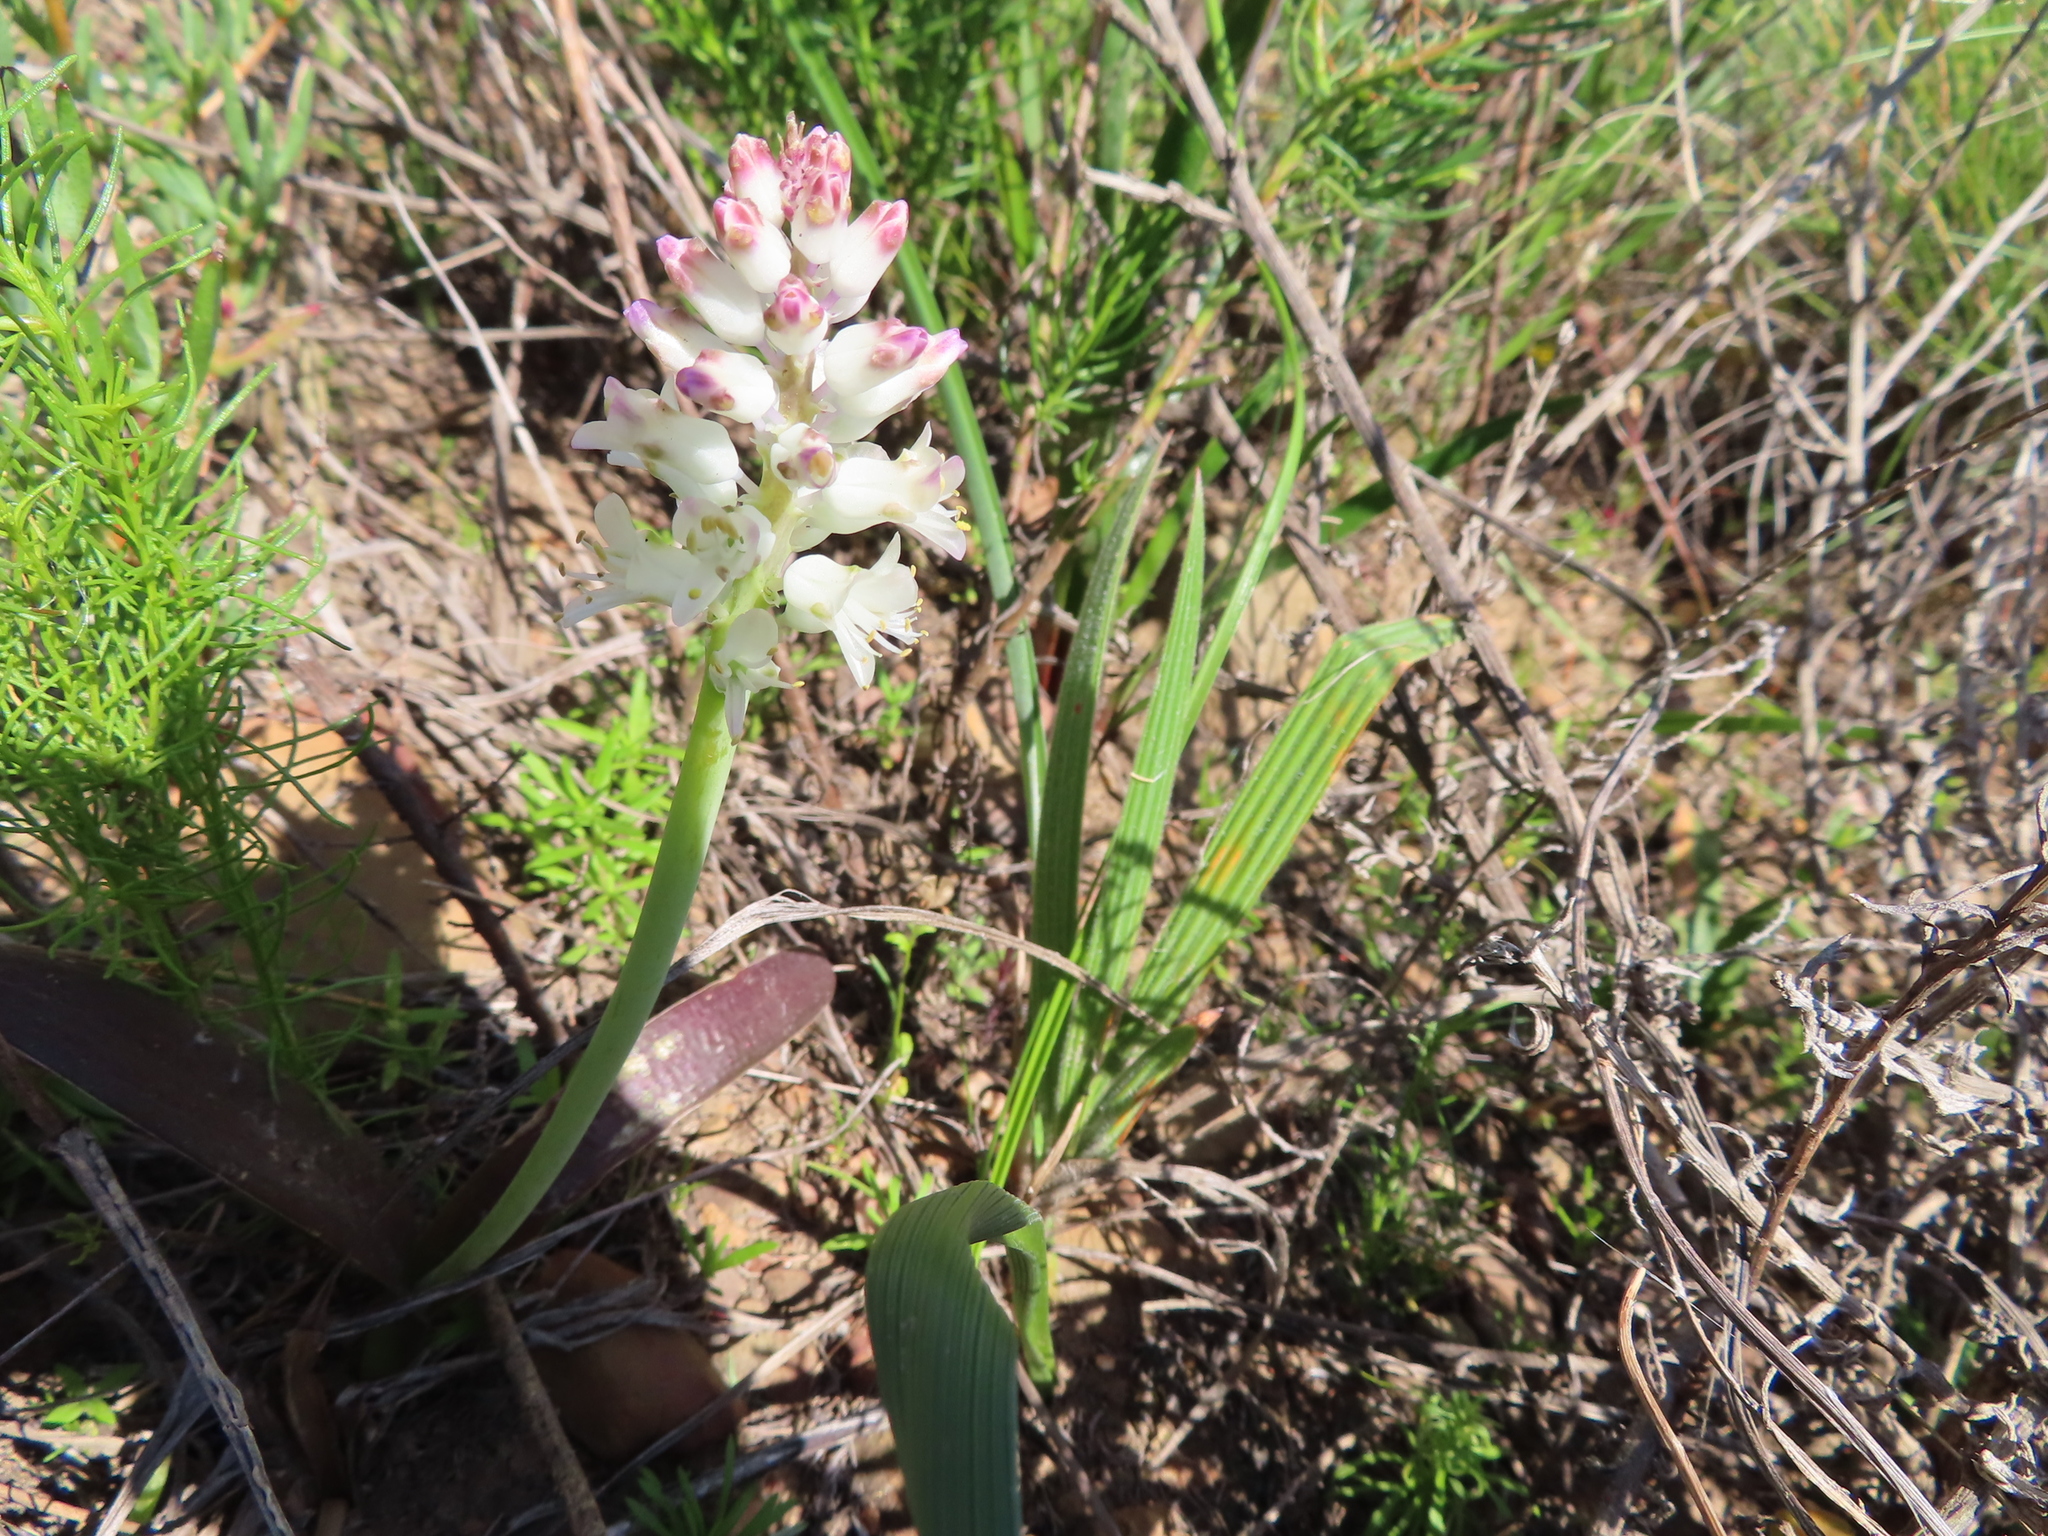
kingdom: Plantae
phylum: Tracheophyta
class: Liliopsida
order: Asparagales
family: Asparagaceae
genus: Lachenalia
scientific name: Lachenalia pallida
